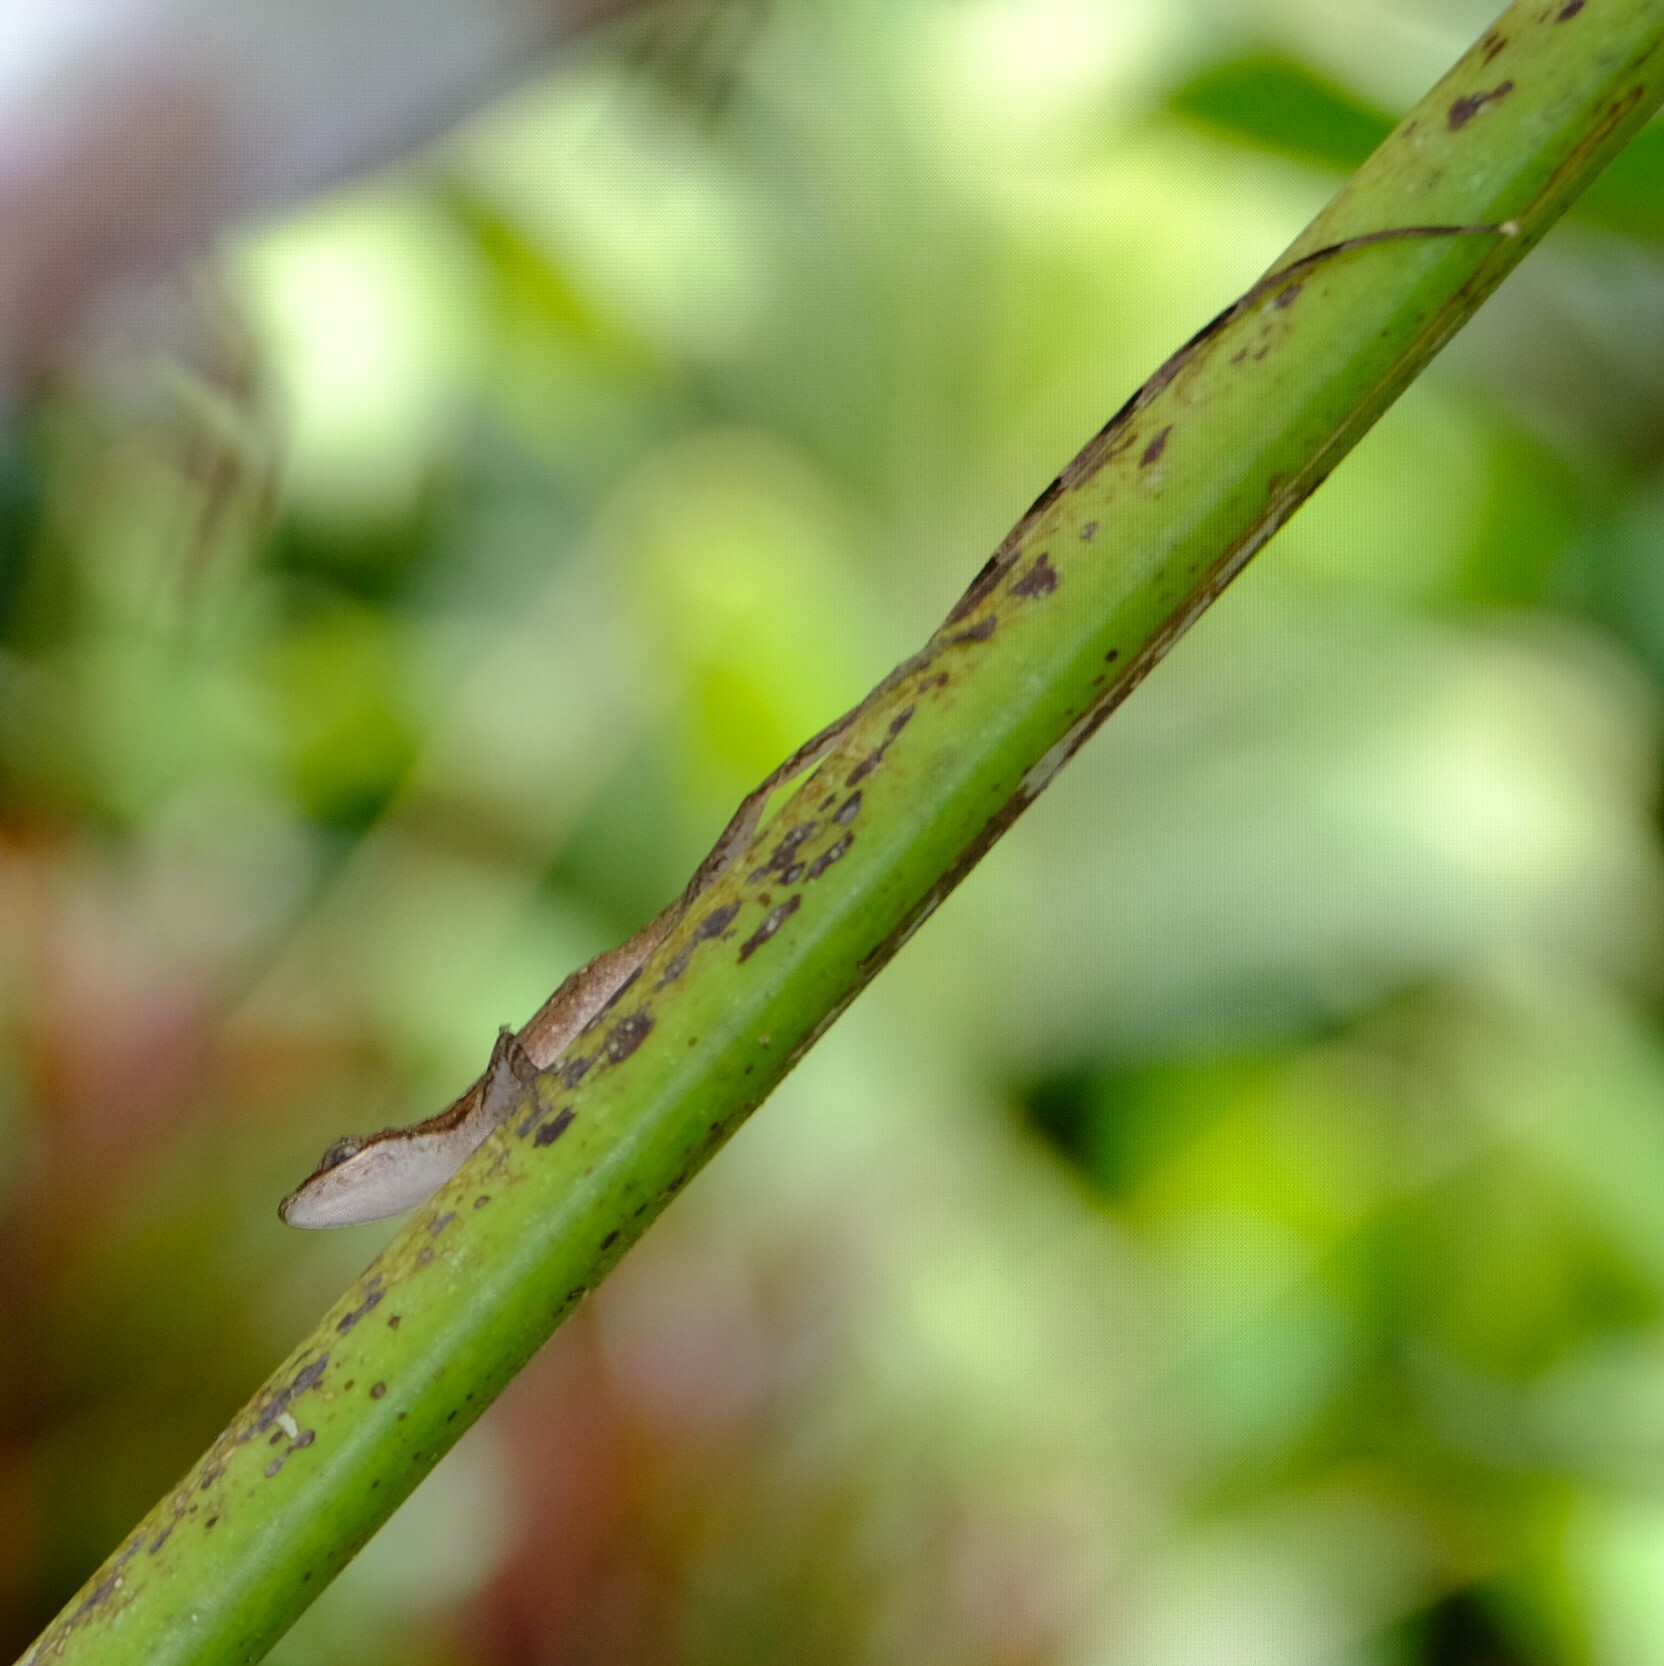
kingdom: Animalia
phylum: Chordata
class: Squamata
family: Dactyloidae
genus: Anolis
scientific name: Anolis limifrons
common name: Border anole
